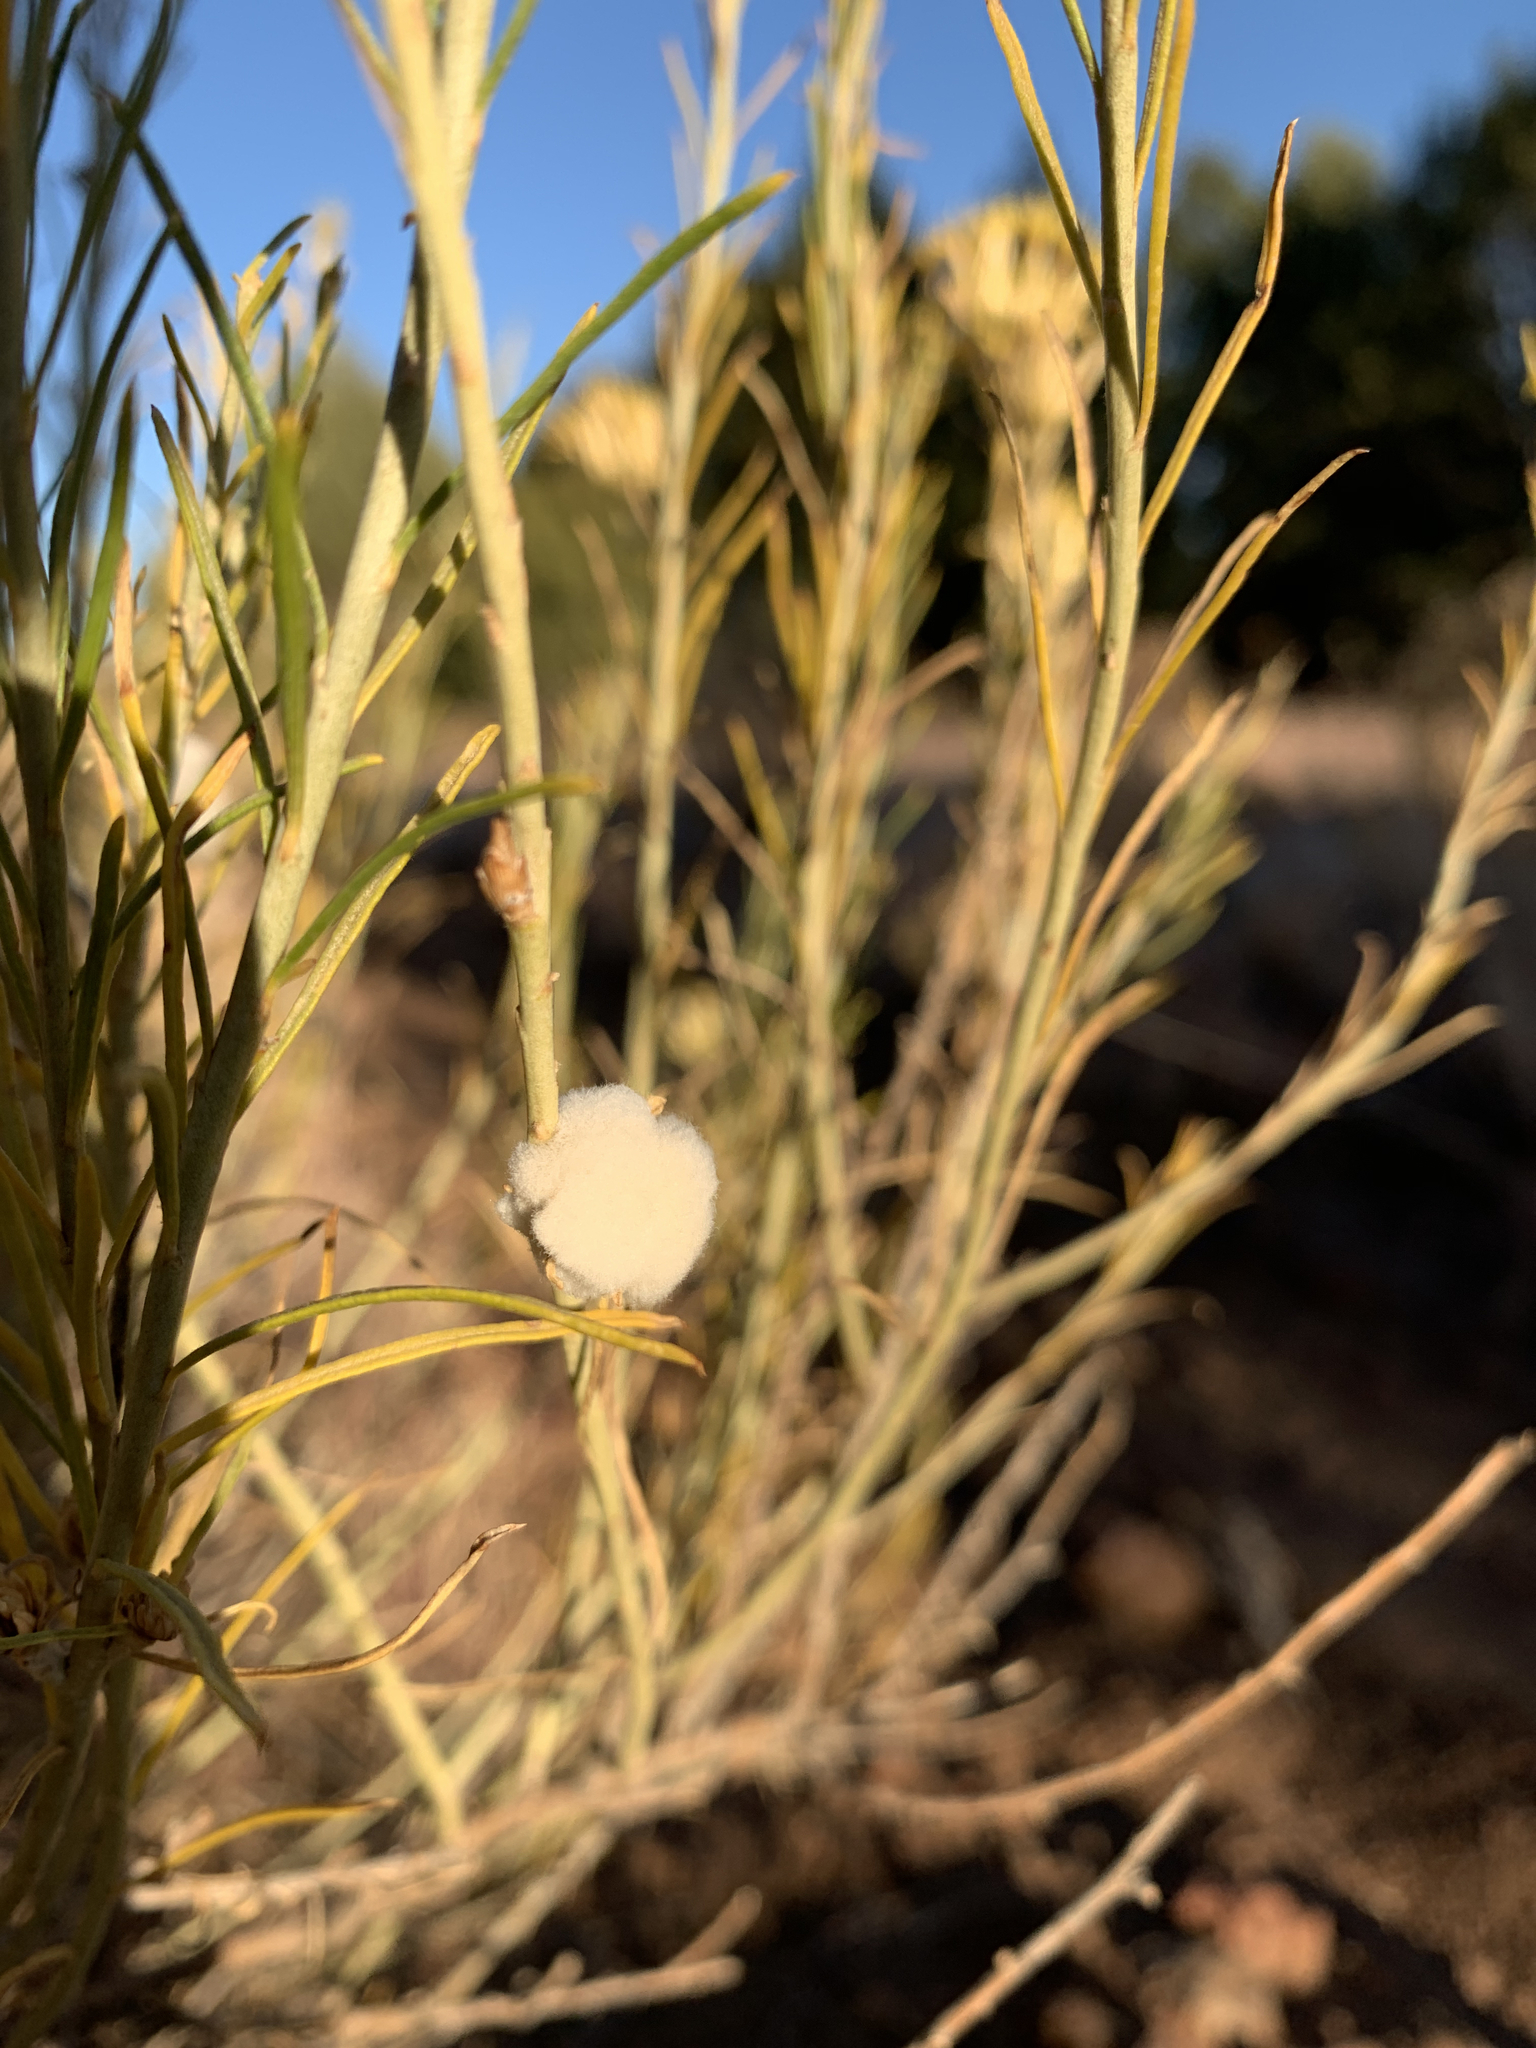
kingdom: Plantae
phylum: Tracheophyta
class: Magnoliopsida
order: Asterales
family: Asteraceae
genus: Ericameria
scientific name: Ericameria nauseosa
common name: Rubber rabbitbrush
